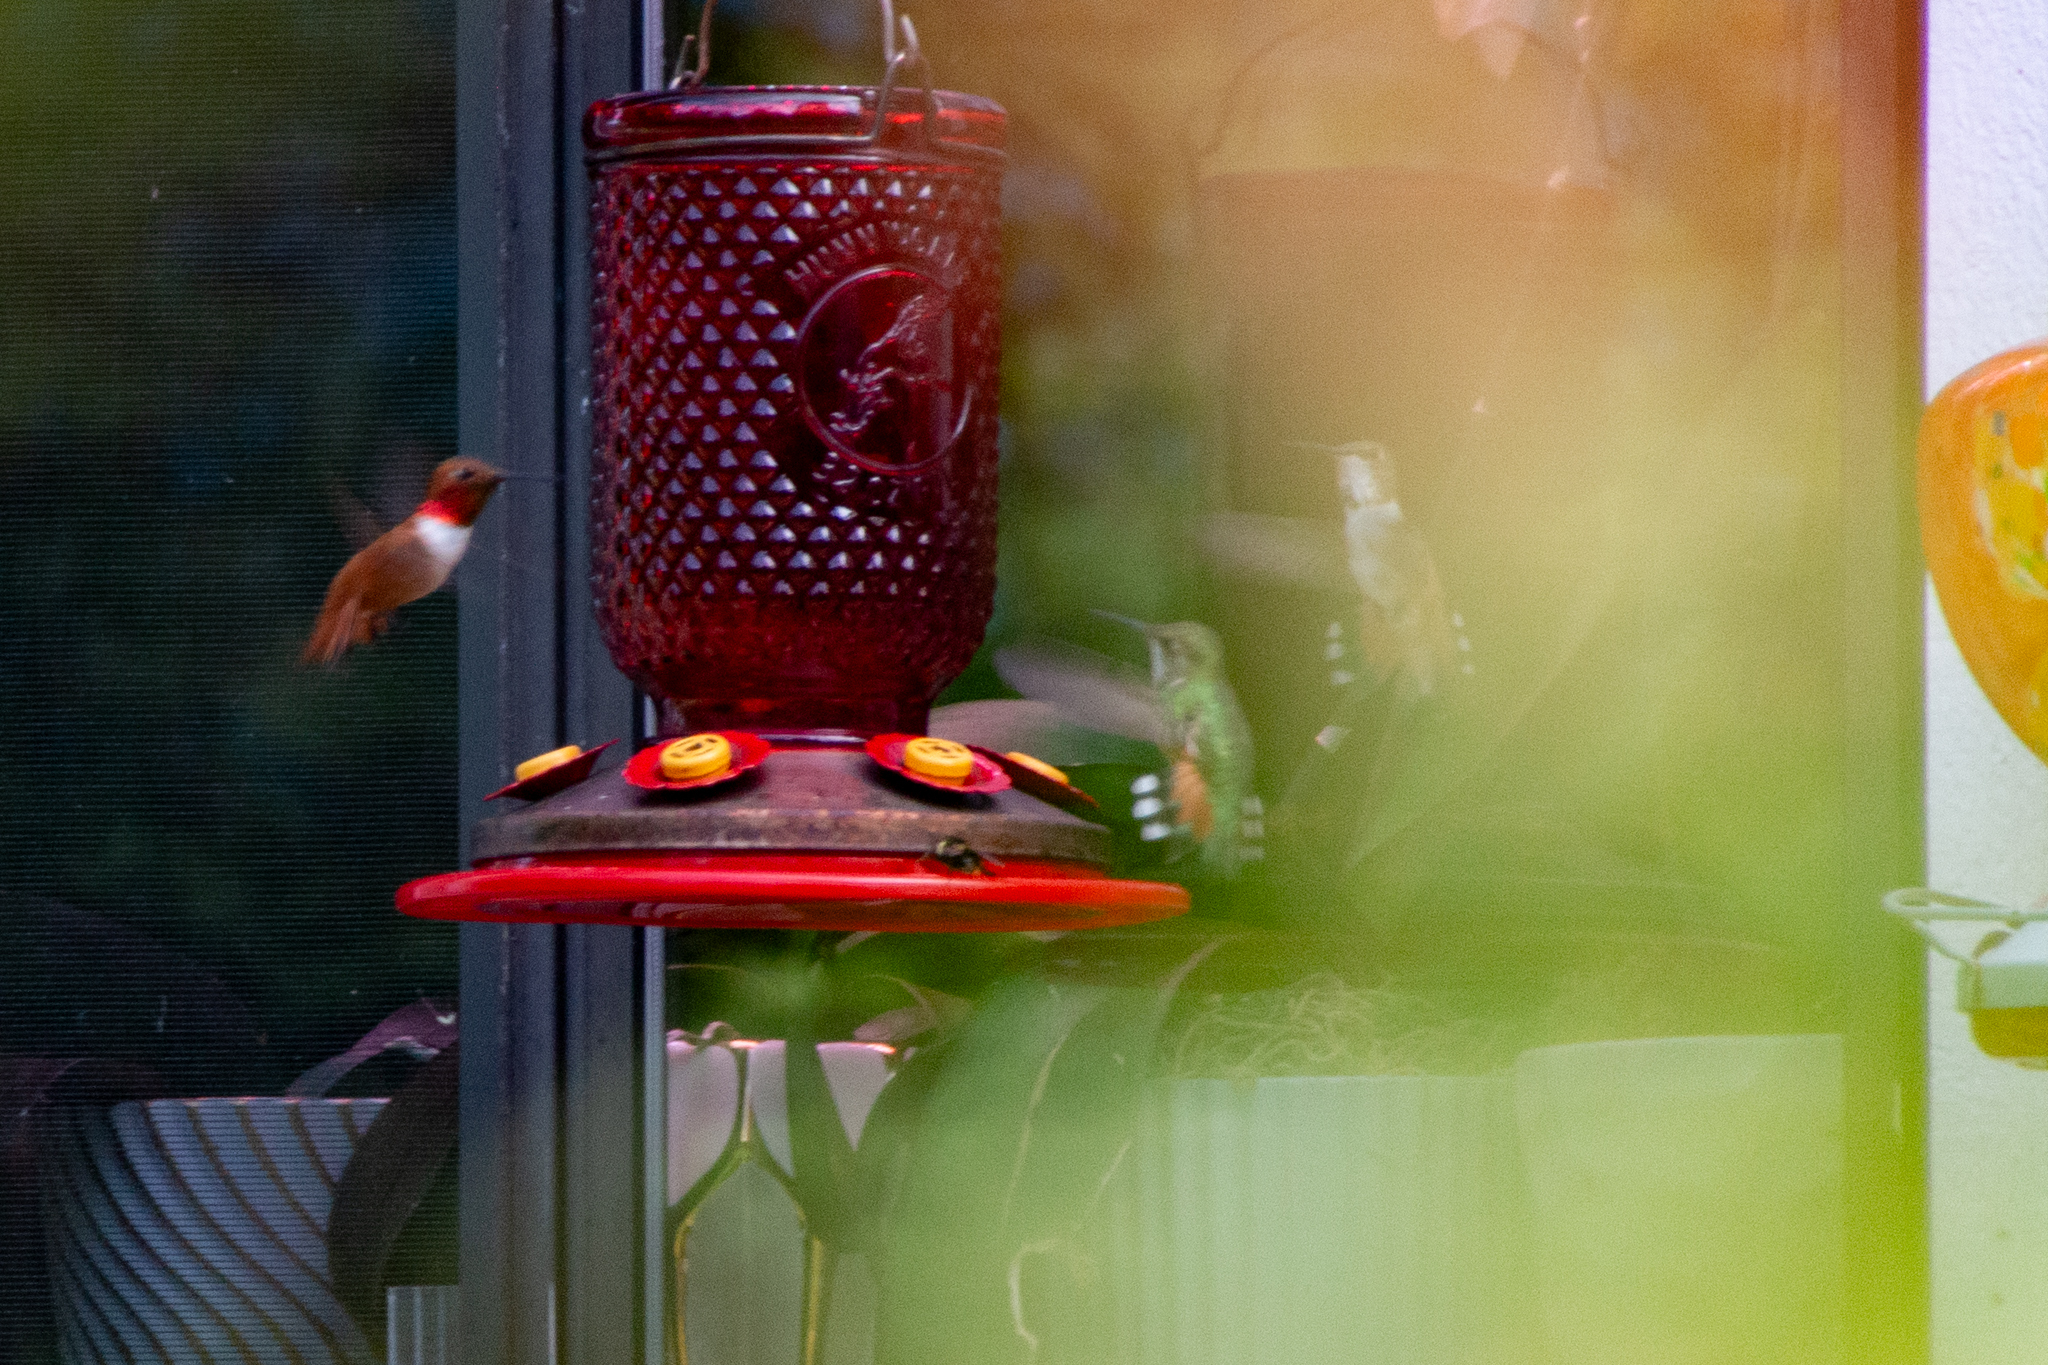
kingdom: Animalia
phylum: Chordata
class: Aves
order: Apodiformes
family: Trochilidae
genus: Selasphorus
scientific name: Selasphorus rufus
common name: Rufous hummingbird
